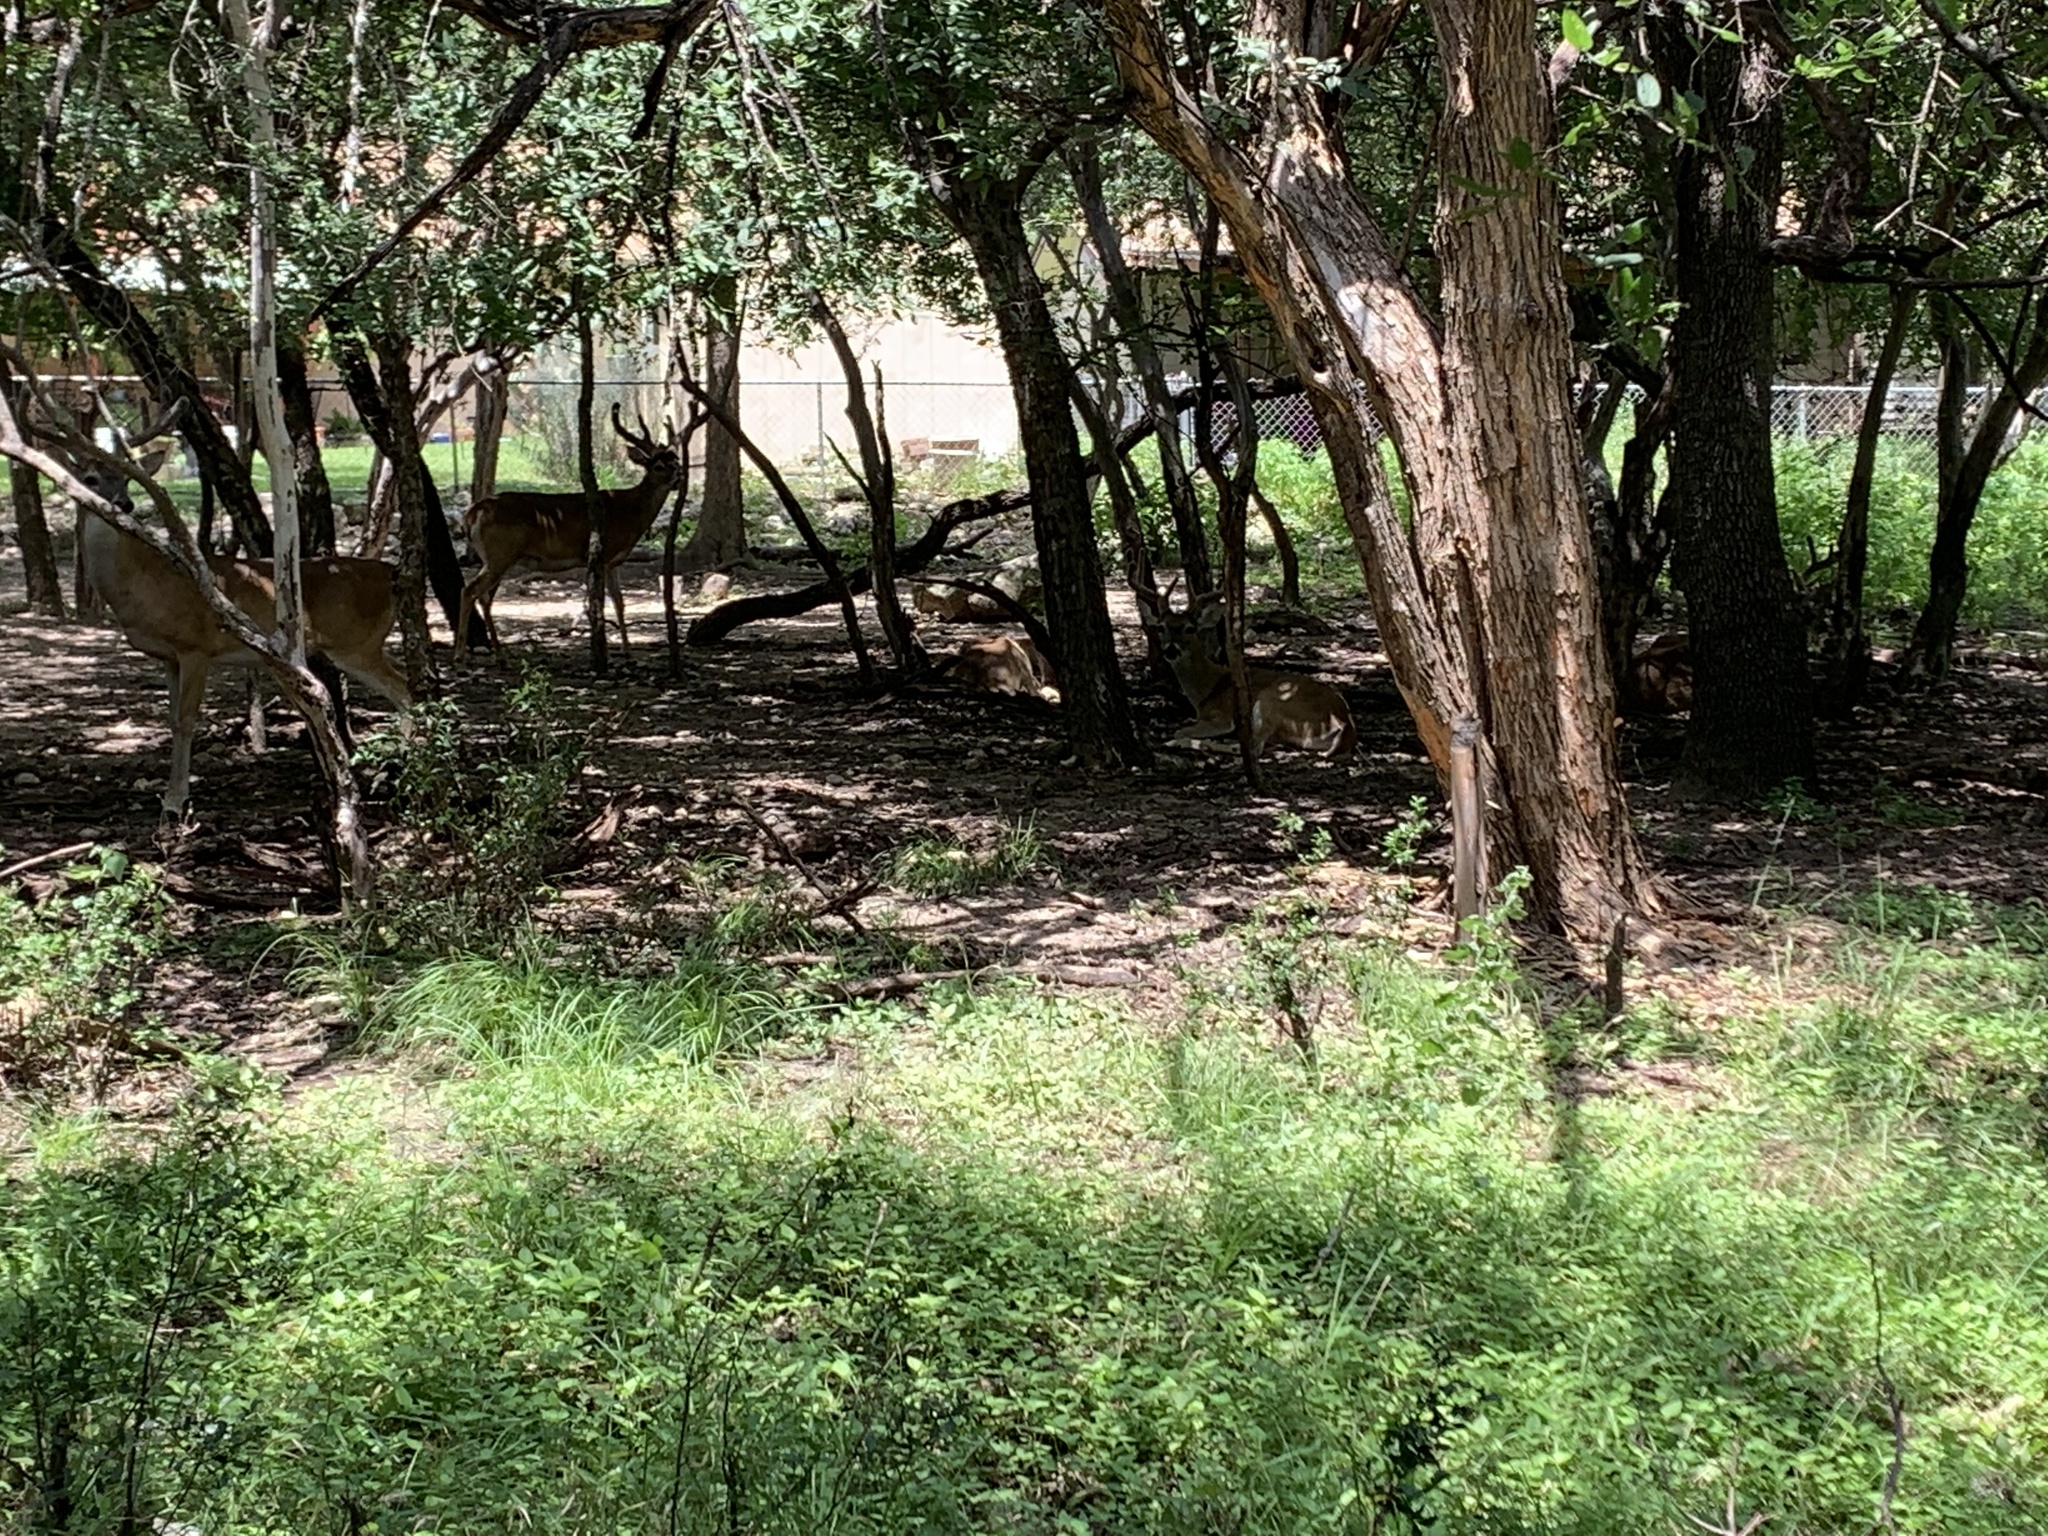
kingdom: Animalia
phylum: Chordata
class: Mammalia
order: Artiodactyla
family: Cervidae
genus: Odocoileus
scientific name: Odocoileus virginianus
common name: White-tailed deer
